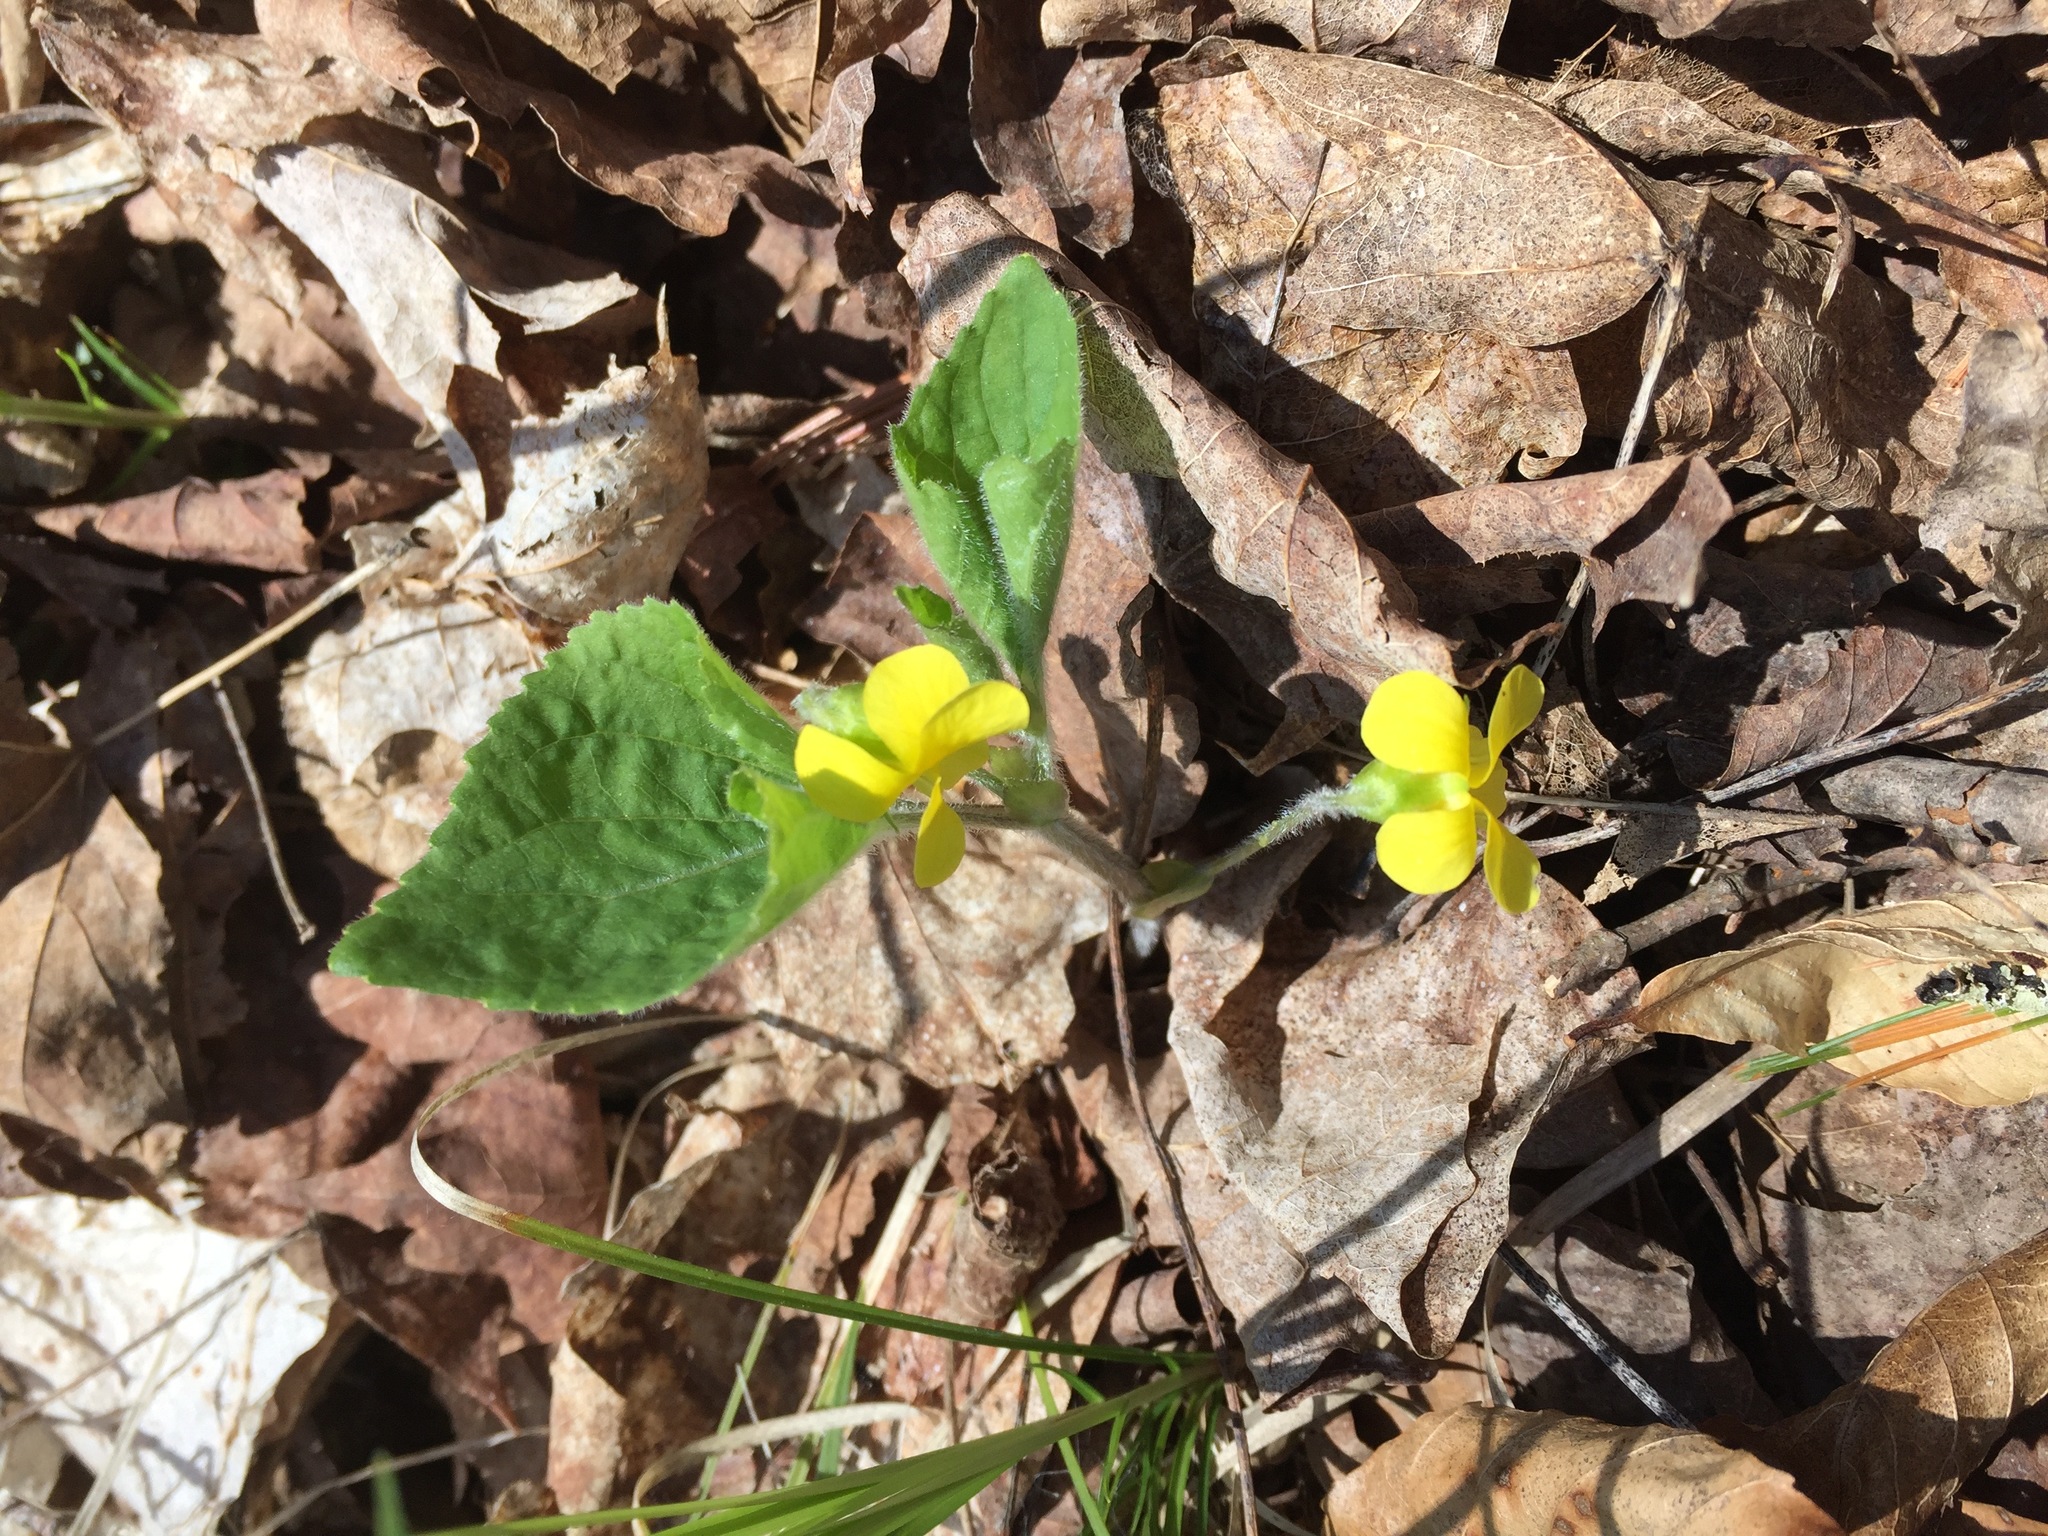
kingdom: Plantae
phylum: Tracheophyta
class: Magnoliopsida
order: Malpighiales
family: Violaceae
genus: Viola
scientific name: Viola pubescens
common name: Yellow forest violet
